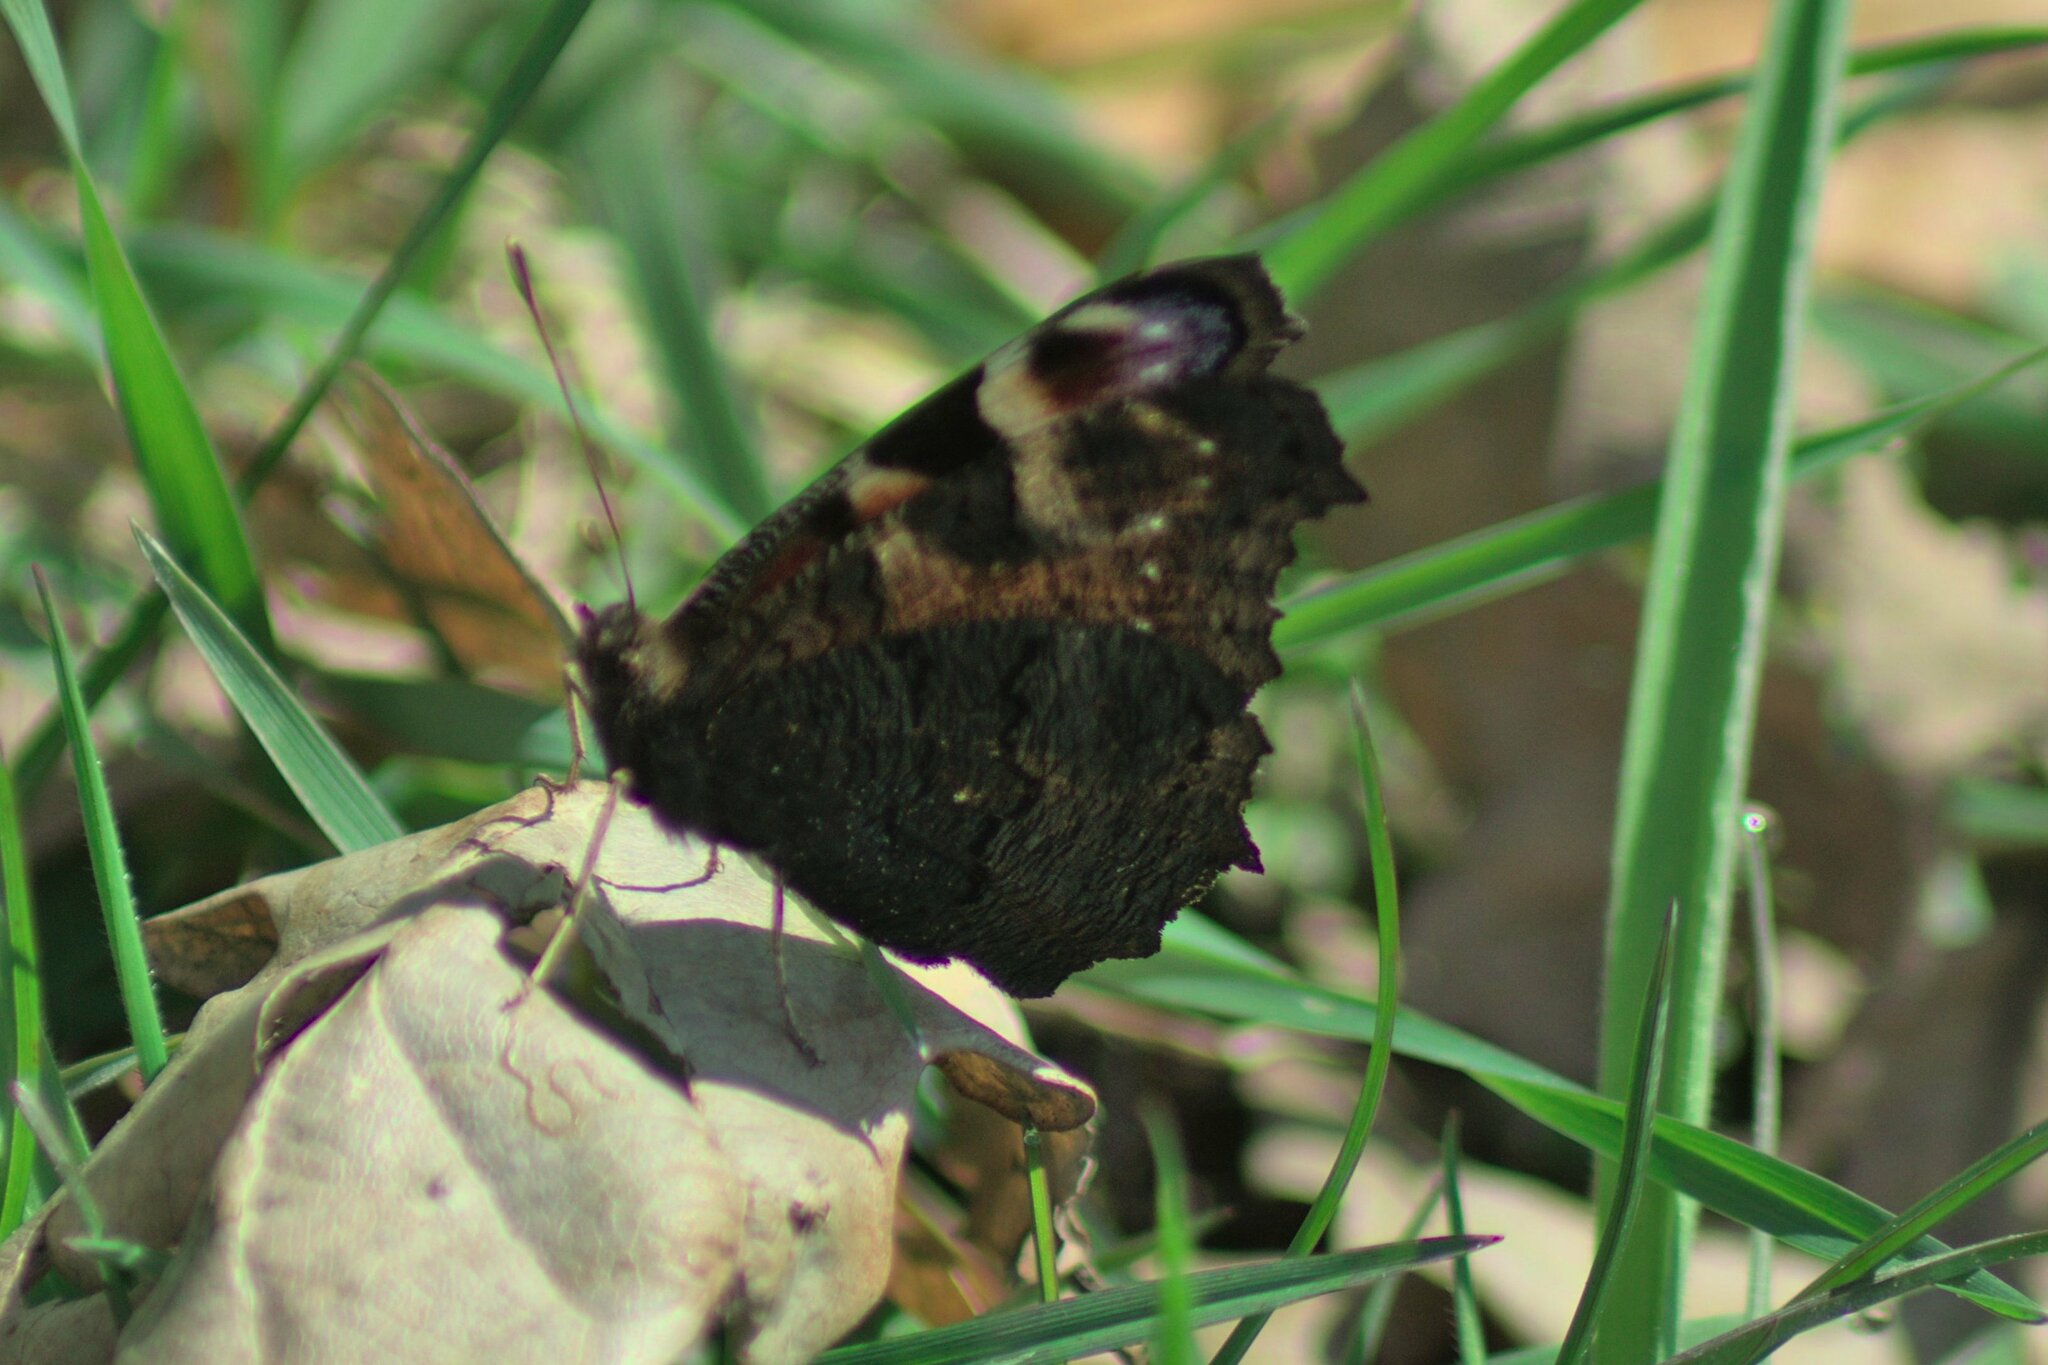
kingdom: Animalia
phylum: Arthropoda
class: Insecta
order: Lepidoptera
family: Nymphalidae
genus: Aglais
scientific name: Aglais io
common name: Peacock
